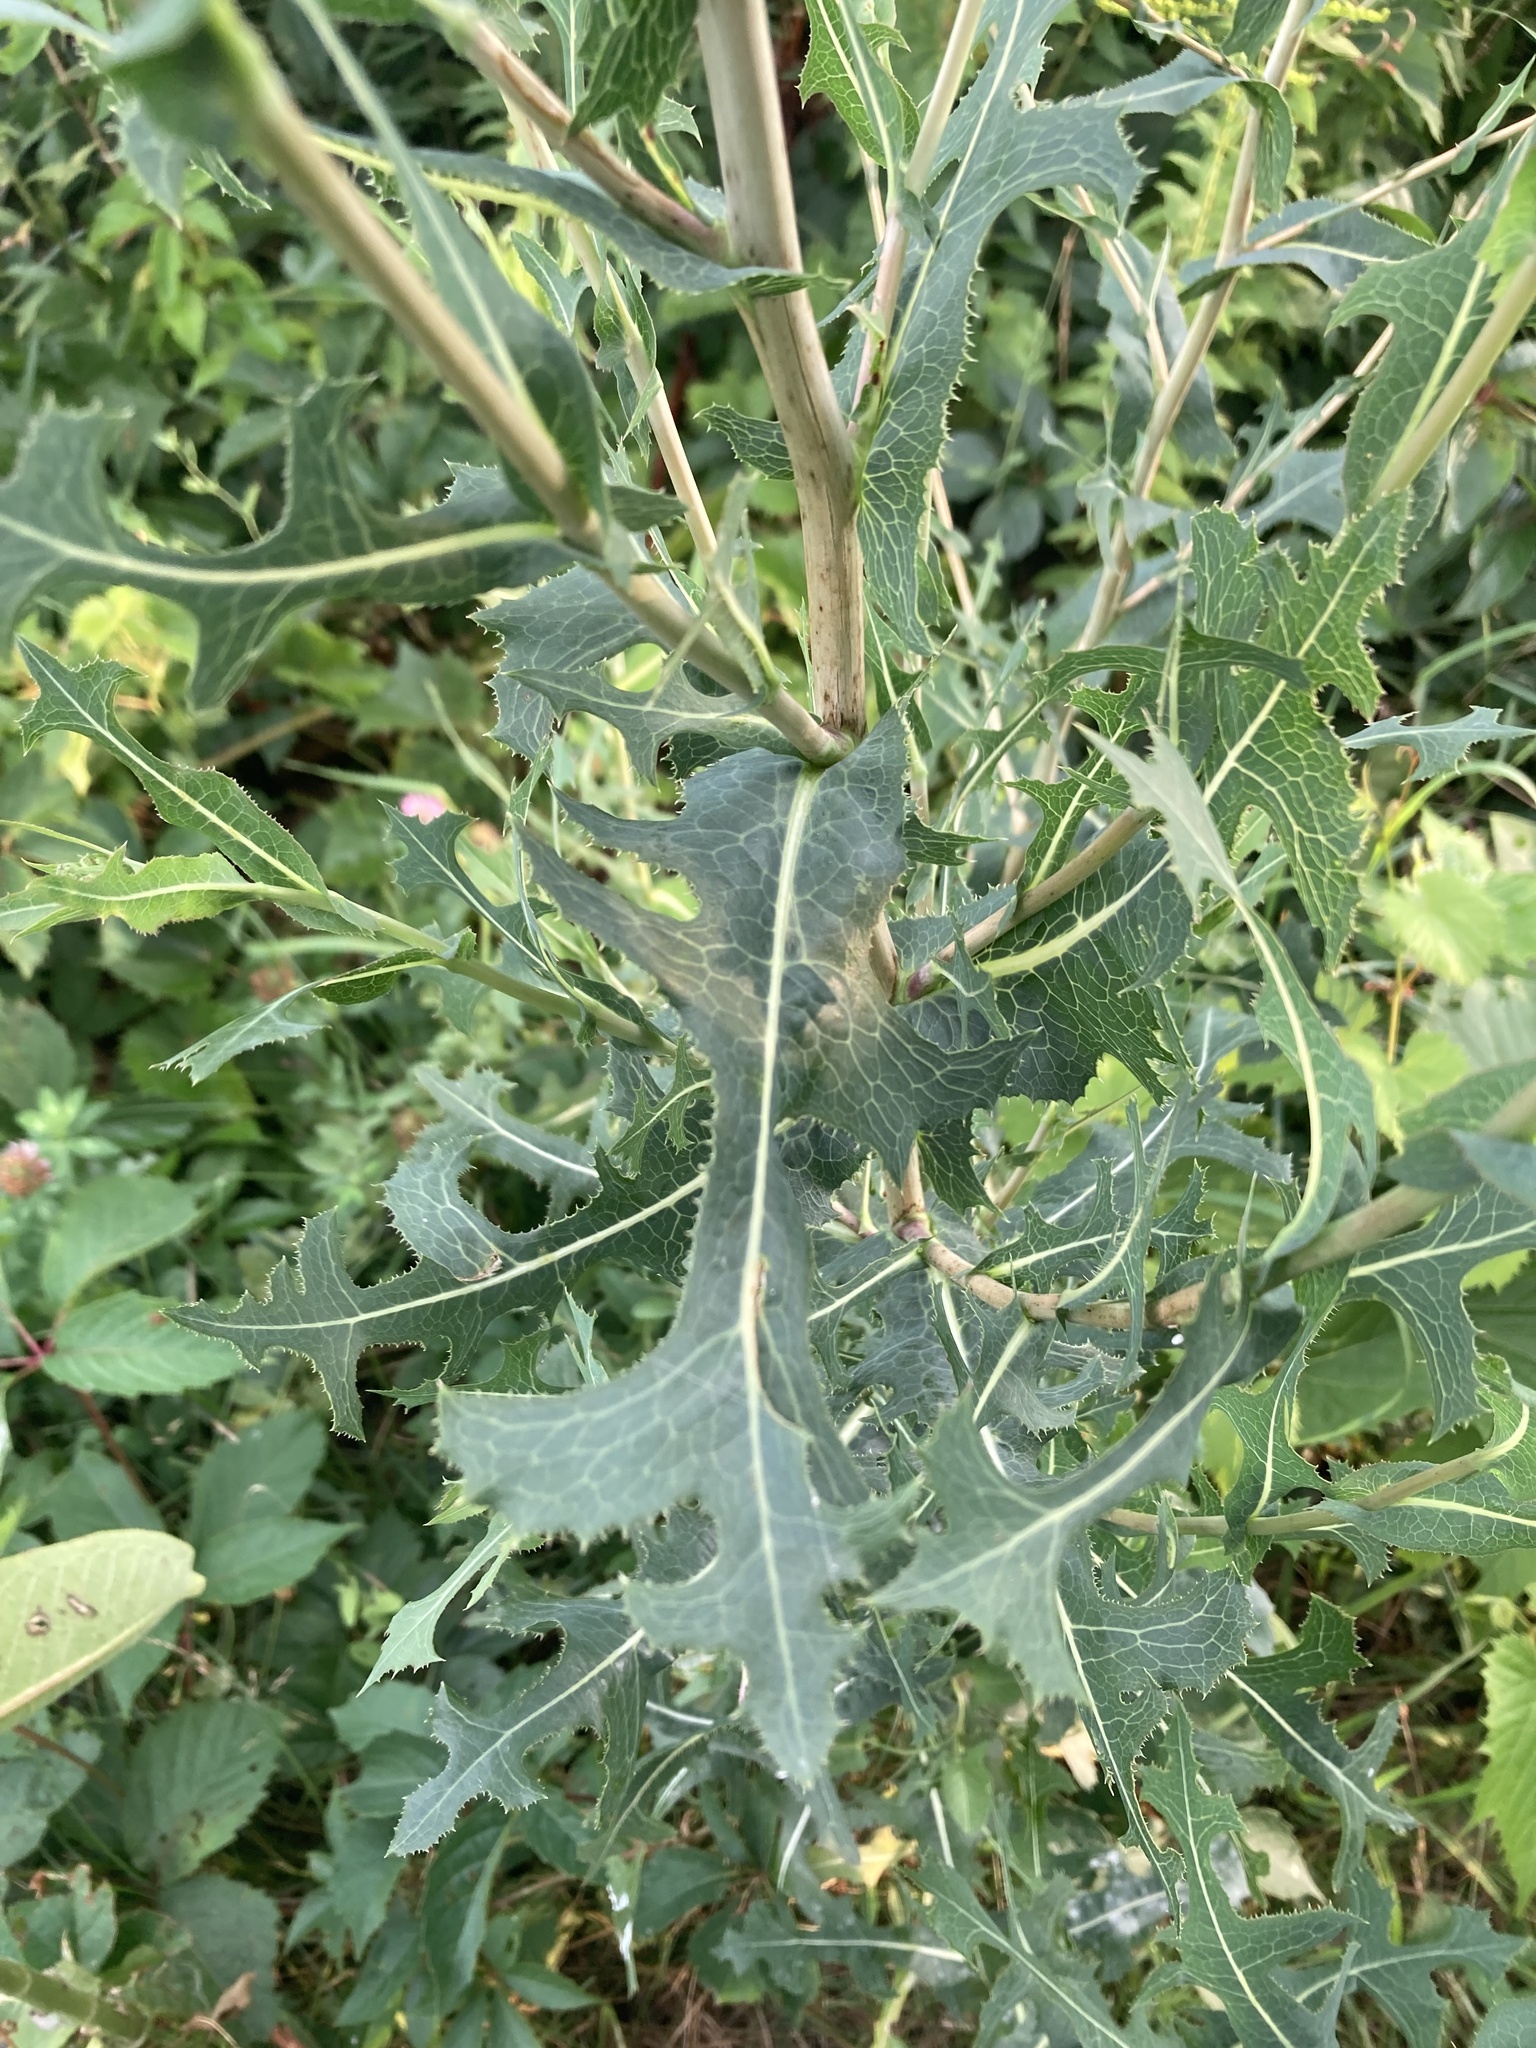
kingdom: Plantae
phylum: Tracheophyta
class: Magnoliopsida
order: Asterales
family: Asteraceae
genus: Lactuca
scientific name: Lactuca serriola
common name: Prickly lettuce
